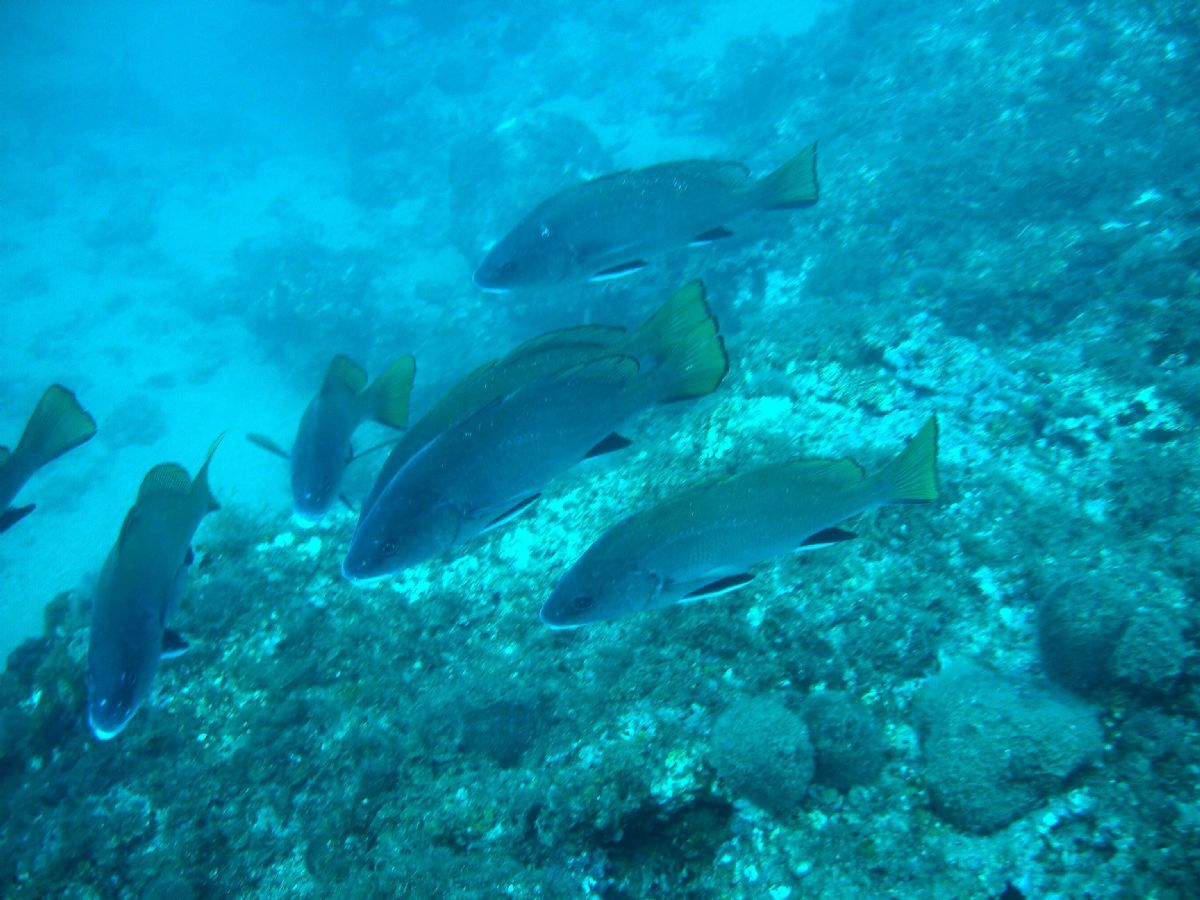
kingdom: Animalia
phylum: Chordata
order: Perciformes
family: Sciaenidae
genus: Sciaena
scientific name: Sciaena umbra
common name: Brown meagre
